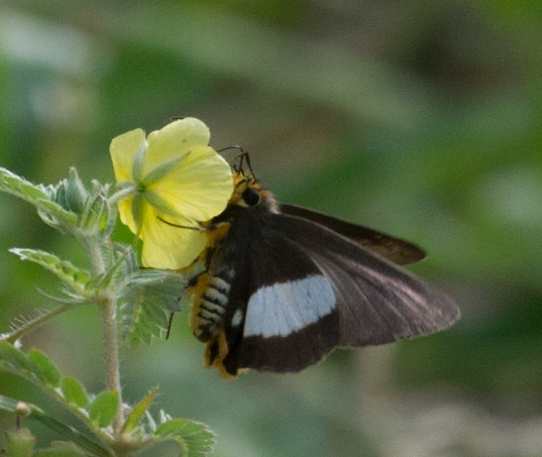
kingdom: Animalia
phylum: Arthropoda
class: Insecta
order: Lepidoptera
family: Hesperiidae
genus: Coeliades
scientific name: Coeliades forestan
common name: Striped policeman
